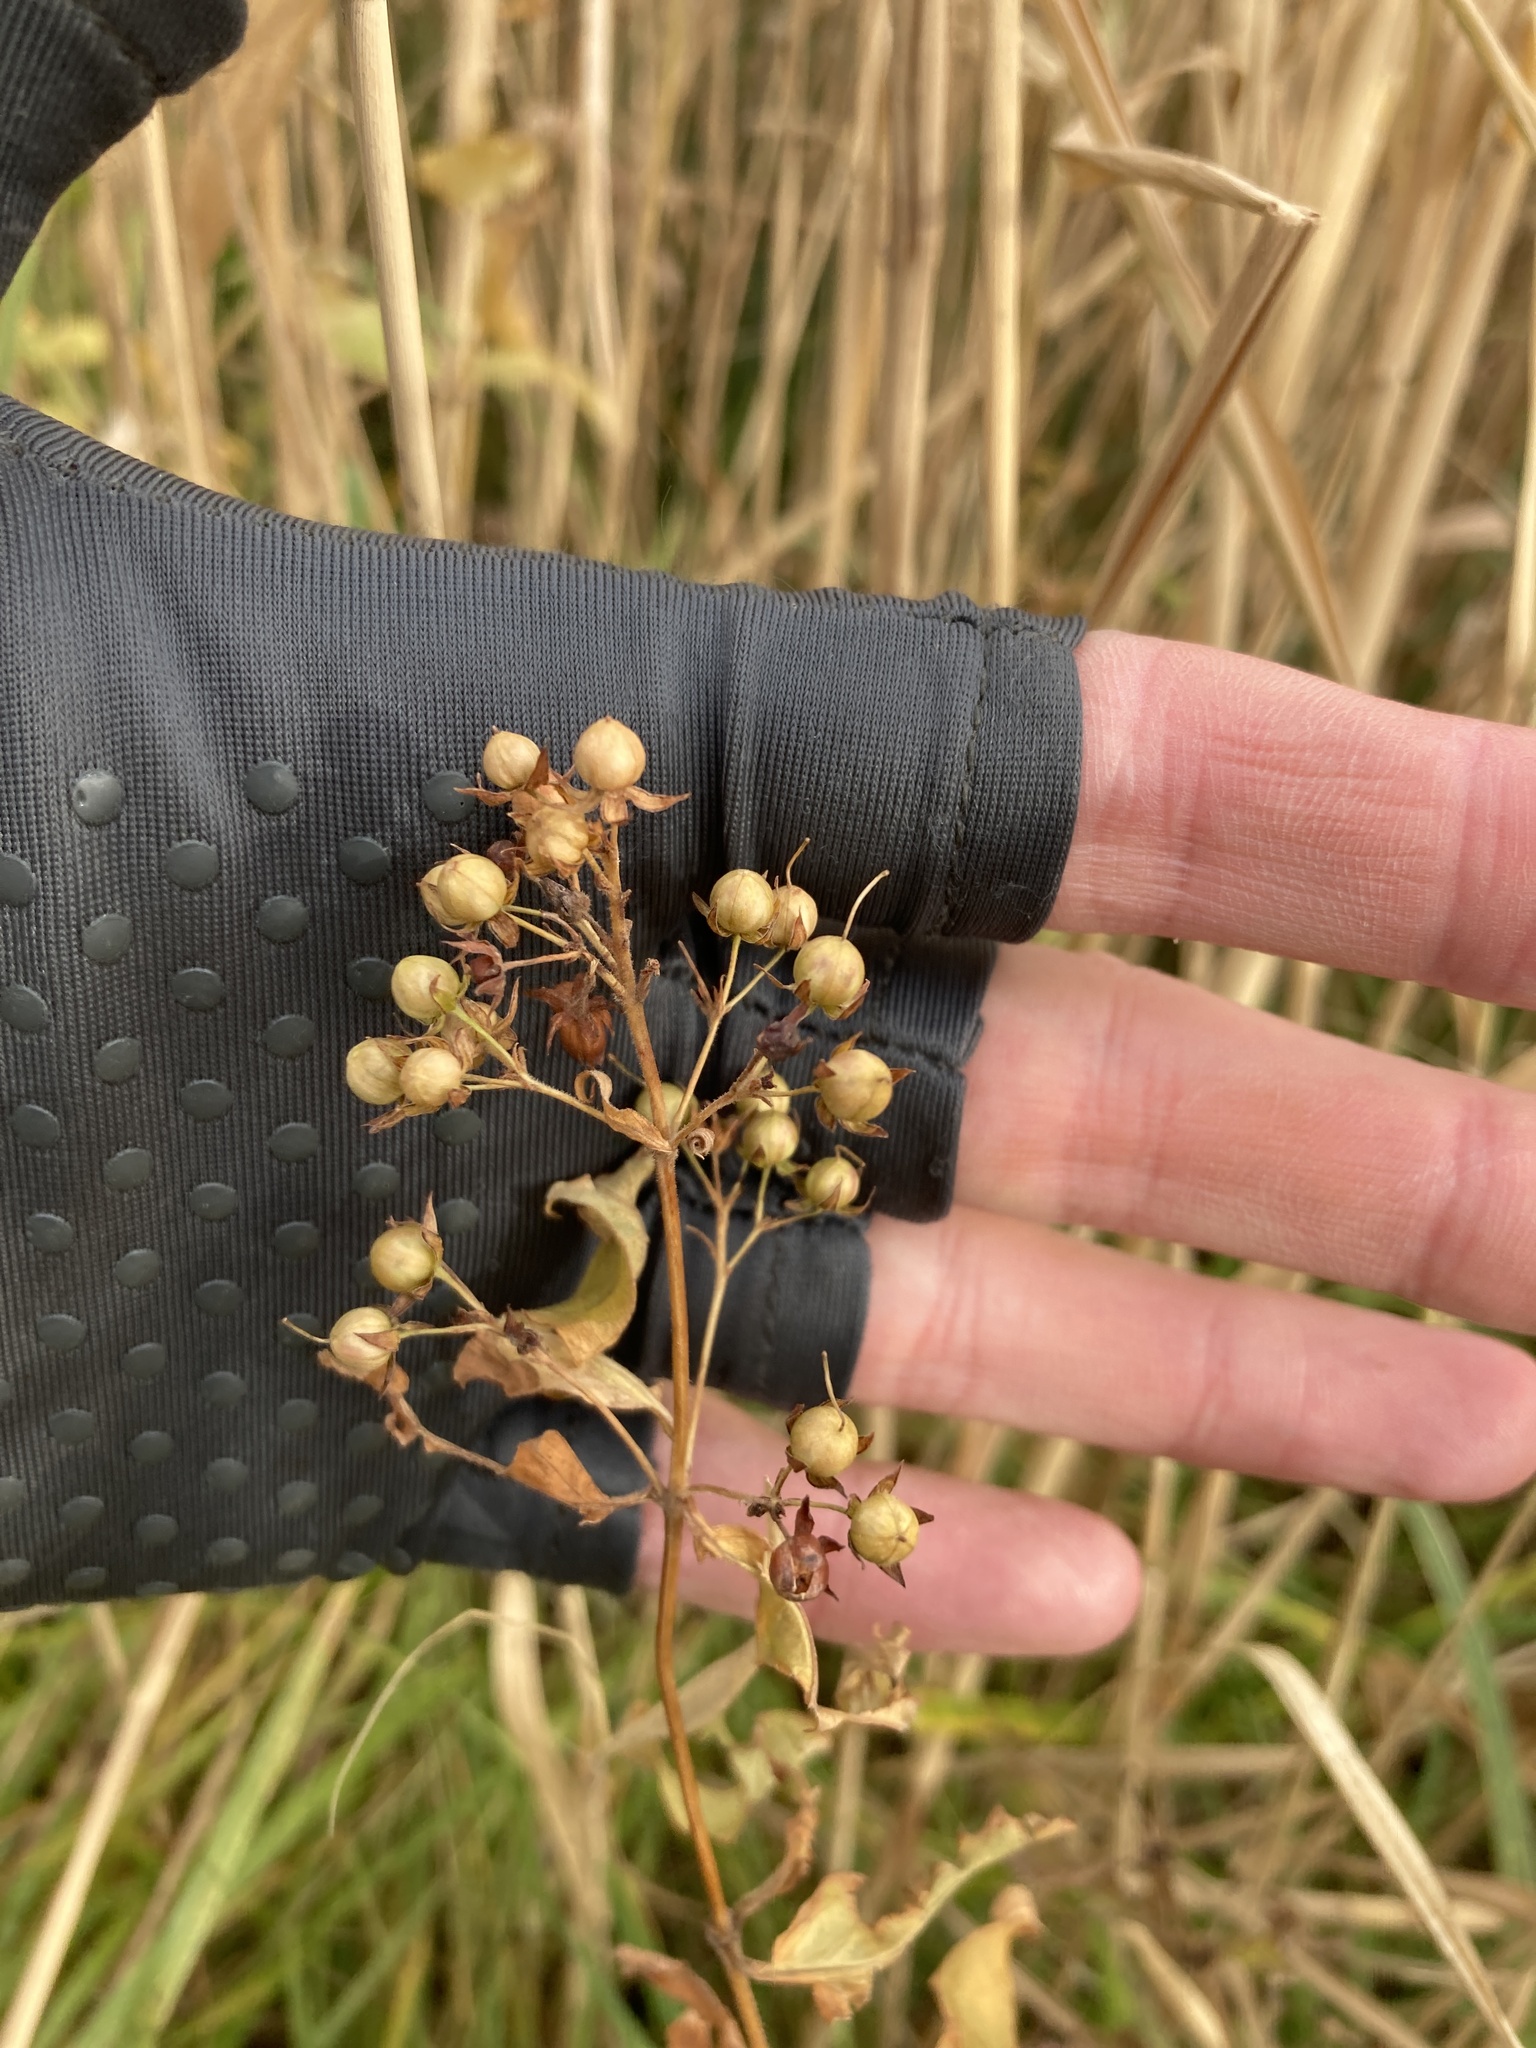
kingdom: Plantae
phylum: Tracheophyta
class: Magnoliopsida
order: Ericales
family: Primulaceae
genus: Lysimachia
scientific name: Lysimachia vulgaris
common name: Yellow loosestrife
